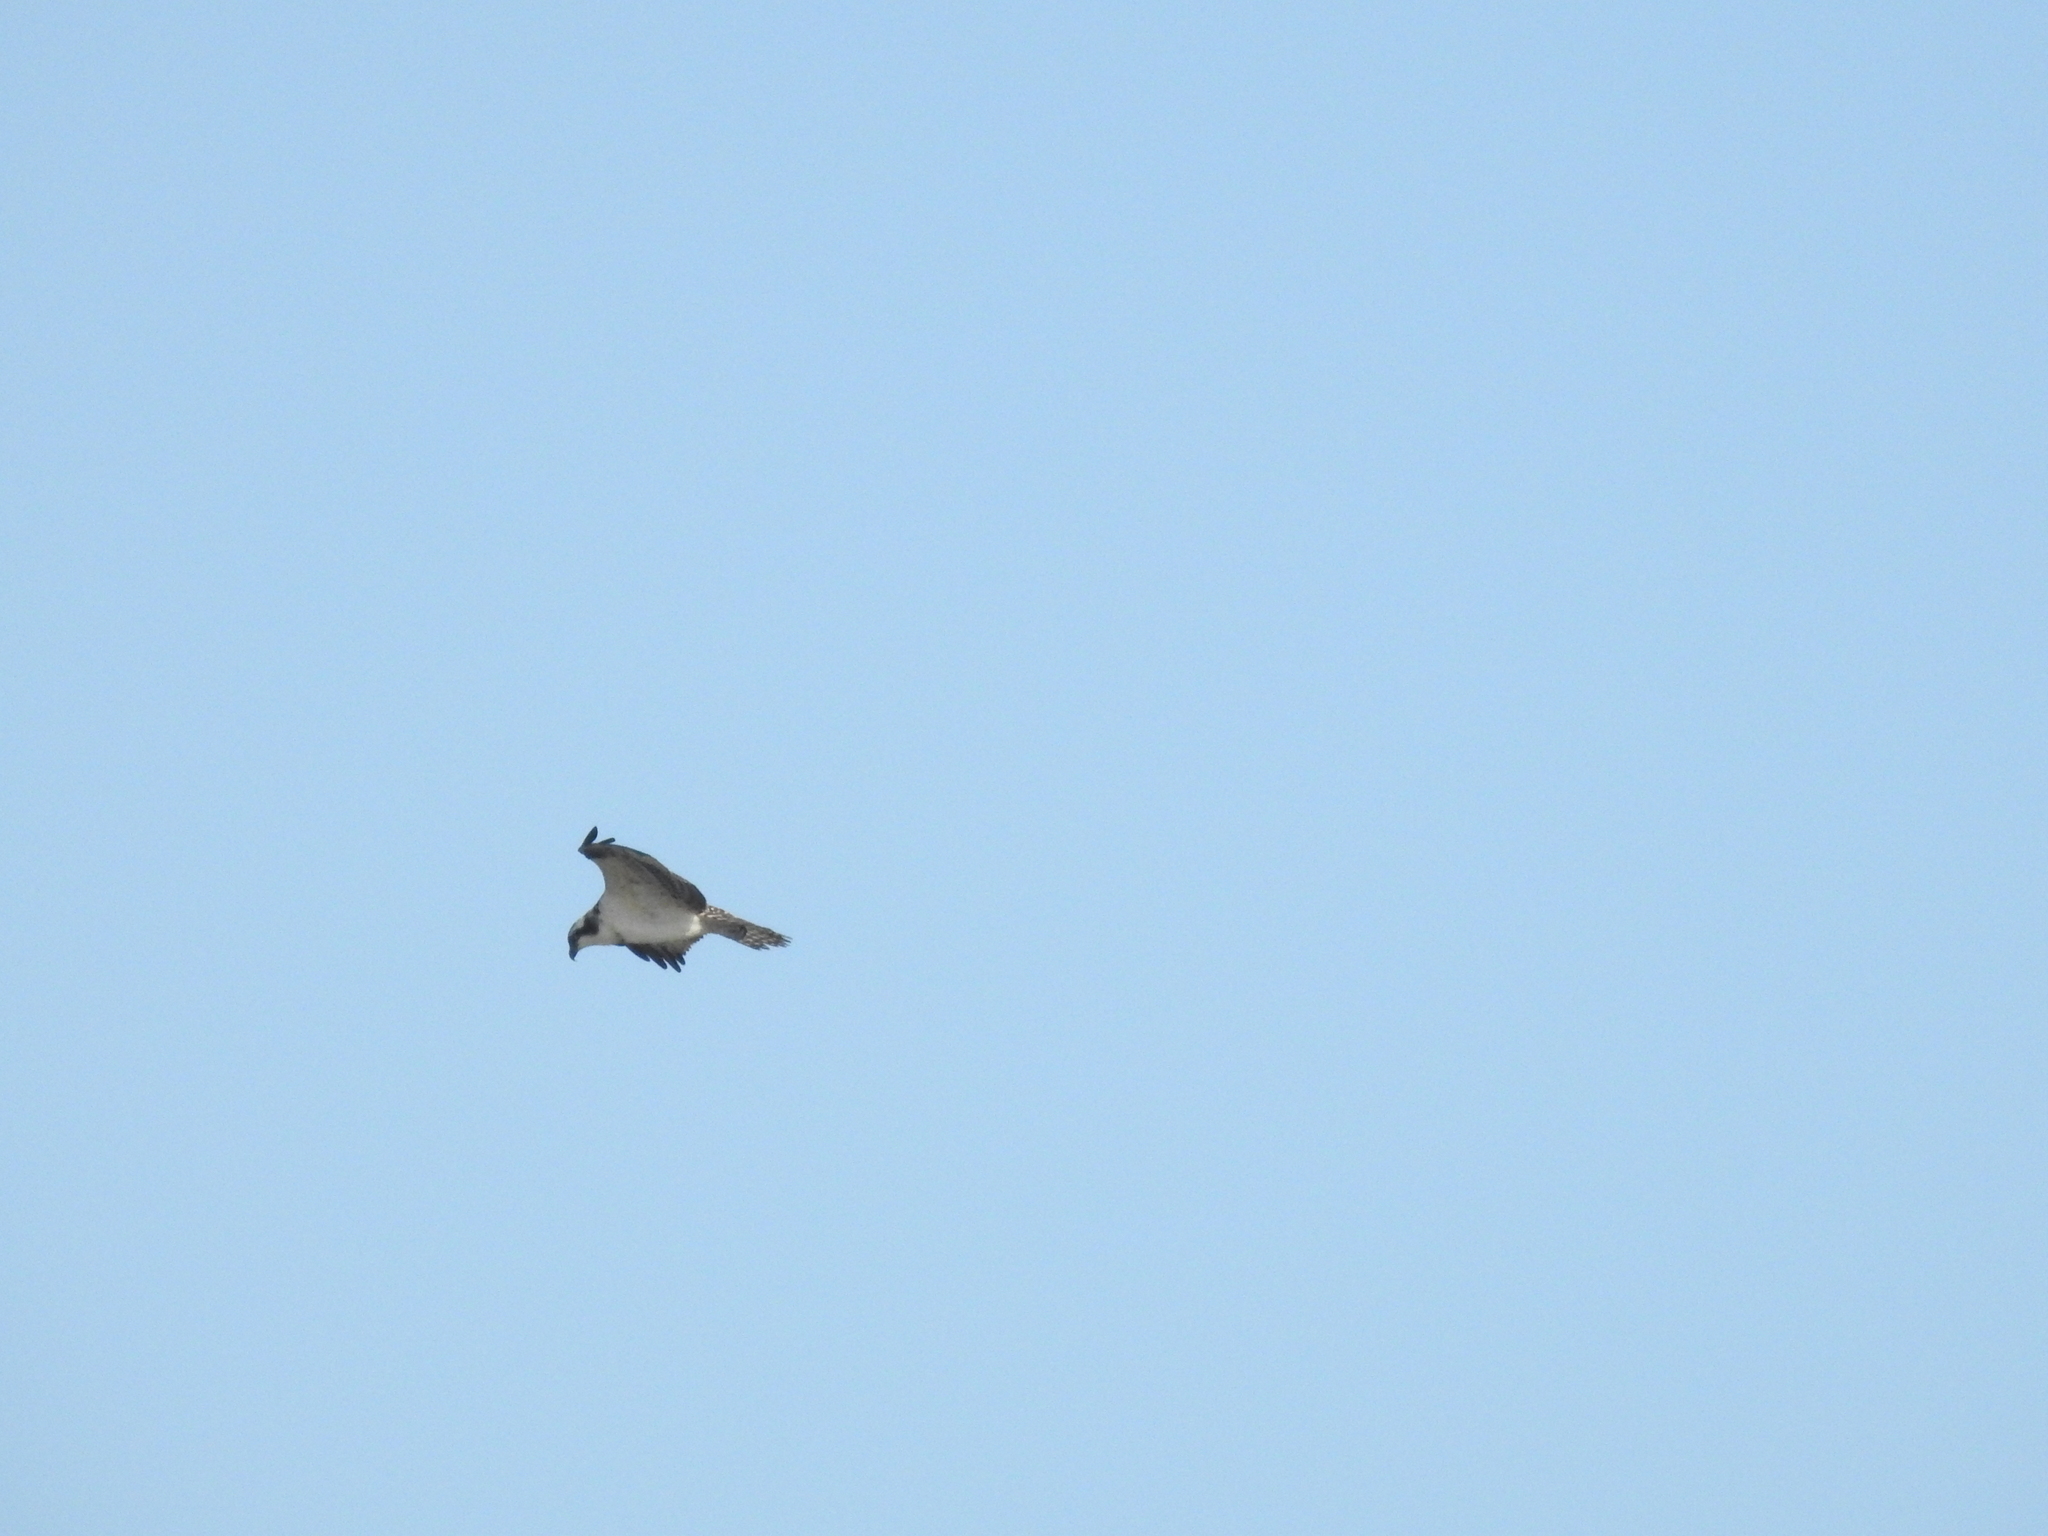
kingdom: Animalia
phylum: Chordata
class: Aves
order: Accipitriformes
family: Pandionidae
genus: Pandion
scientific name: Pandion haliaetus
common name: Osprey
